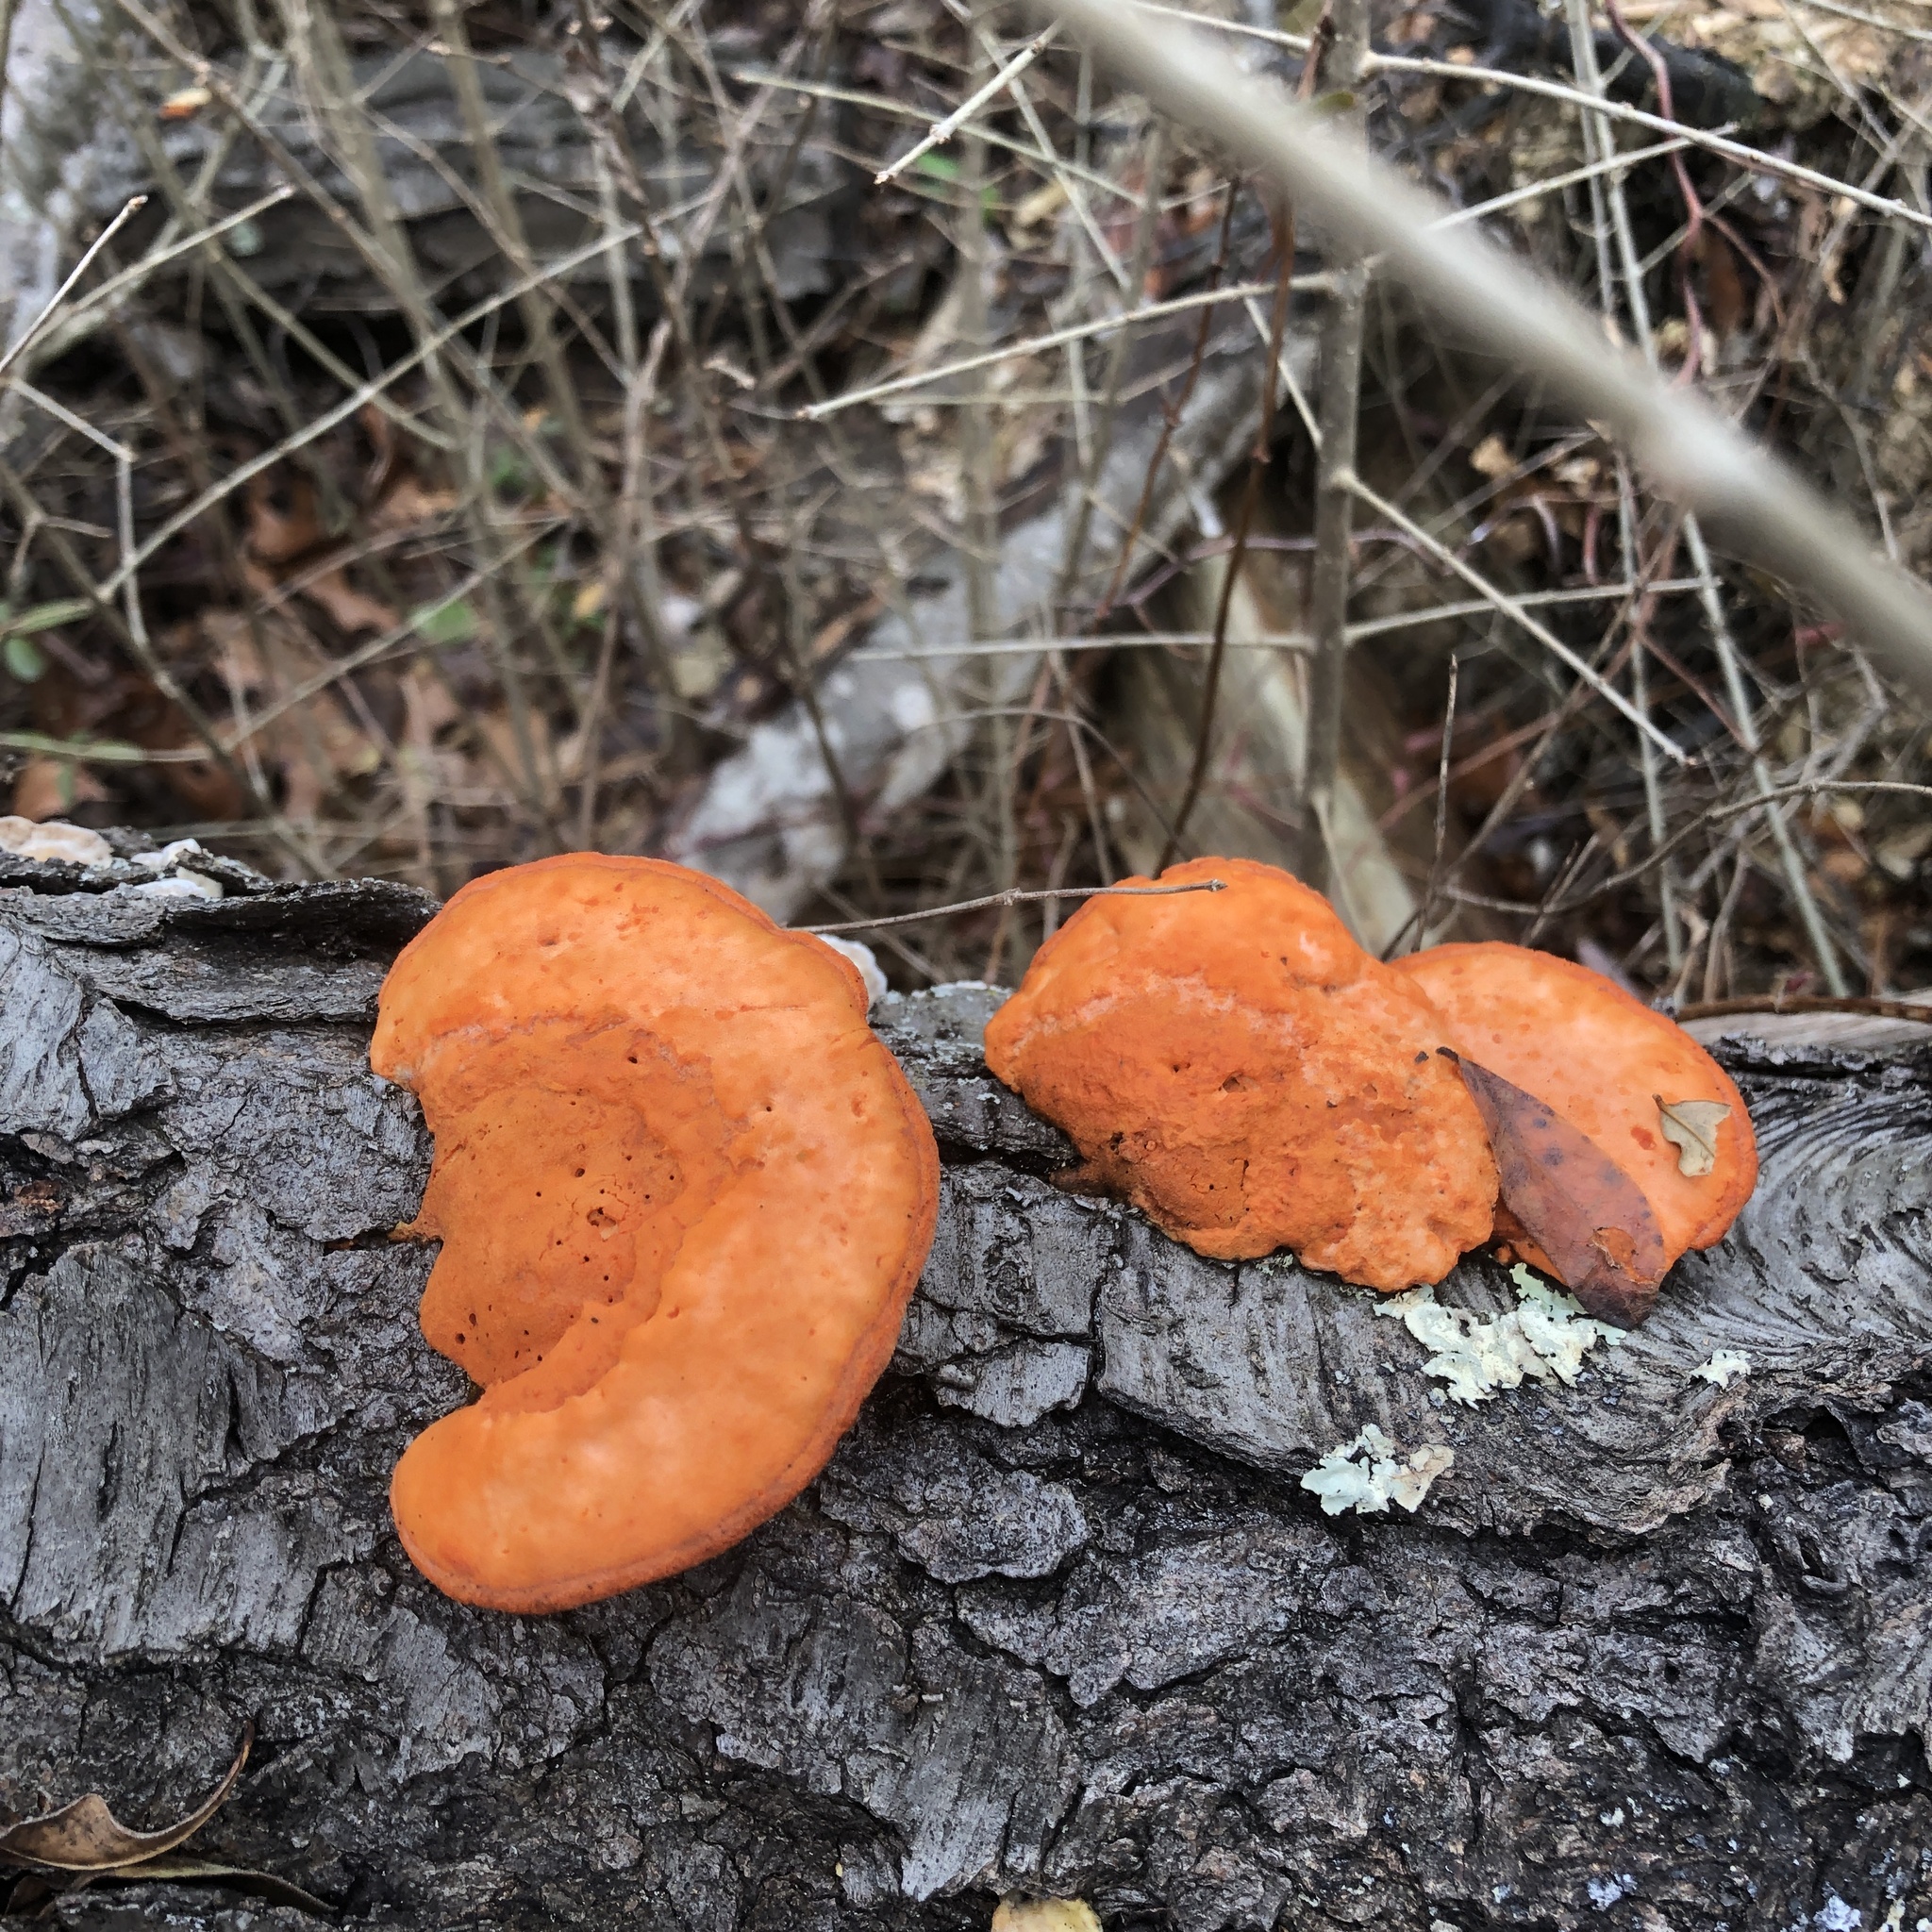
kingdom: Fungi
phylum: Basidiomycota
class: Agaricomycetes
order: Polyporales
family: Polyporaceae
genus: Trametes
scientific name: Trametes cinnabarina
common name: Northern cinnabar polypore
